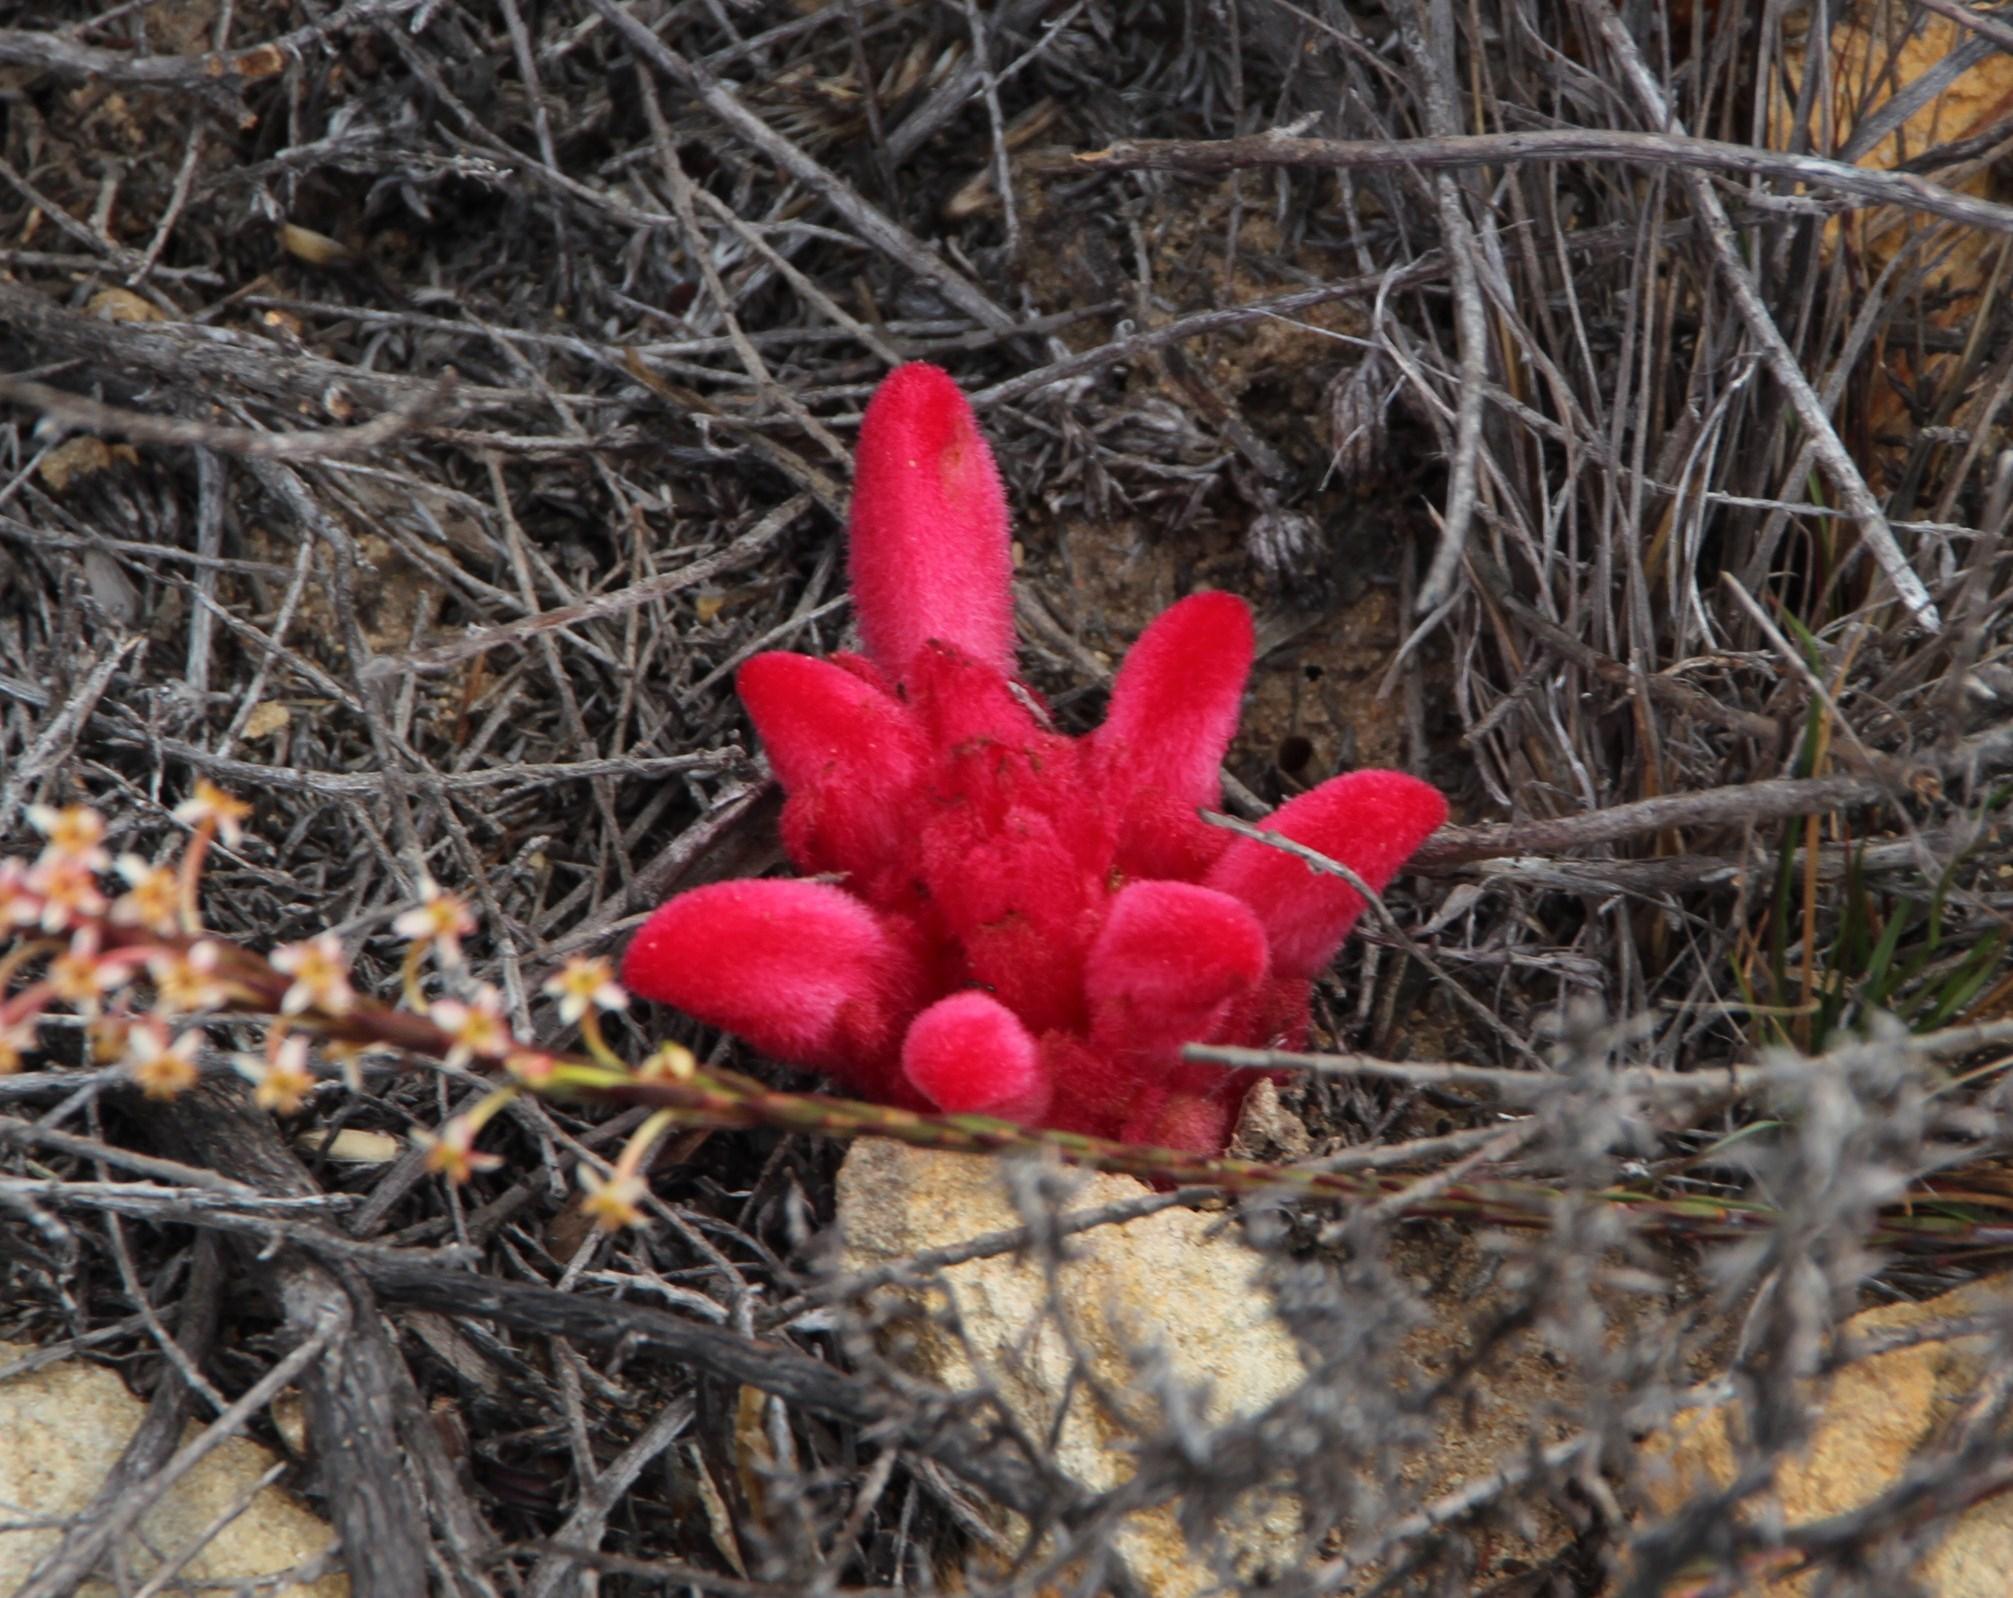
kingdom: Plantae
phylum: Tracheophyta
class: Magnoliopsida
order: Lamiales
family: Orobanchaceae
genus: Hyobanche
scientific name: Hyobanche sanguinea
